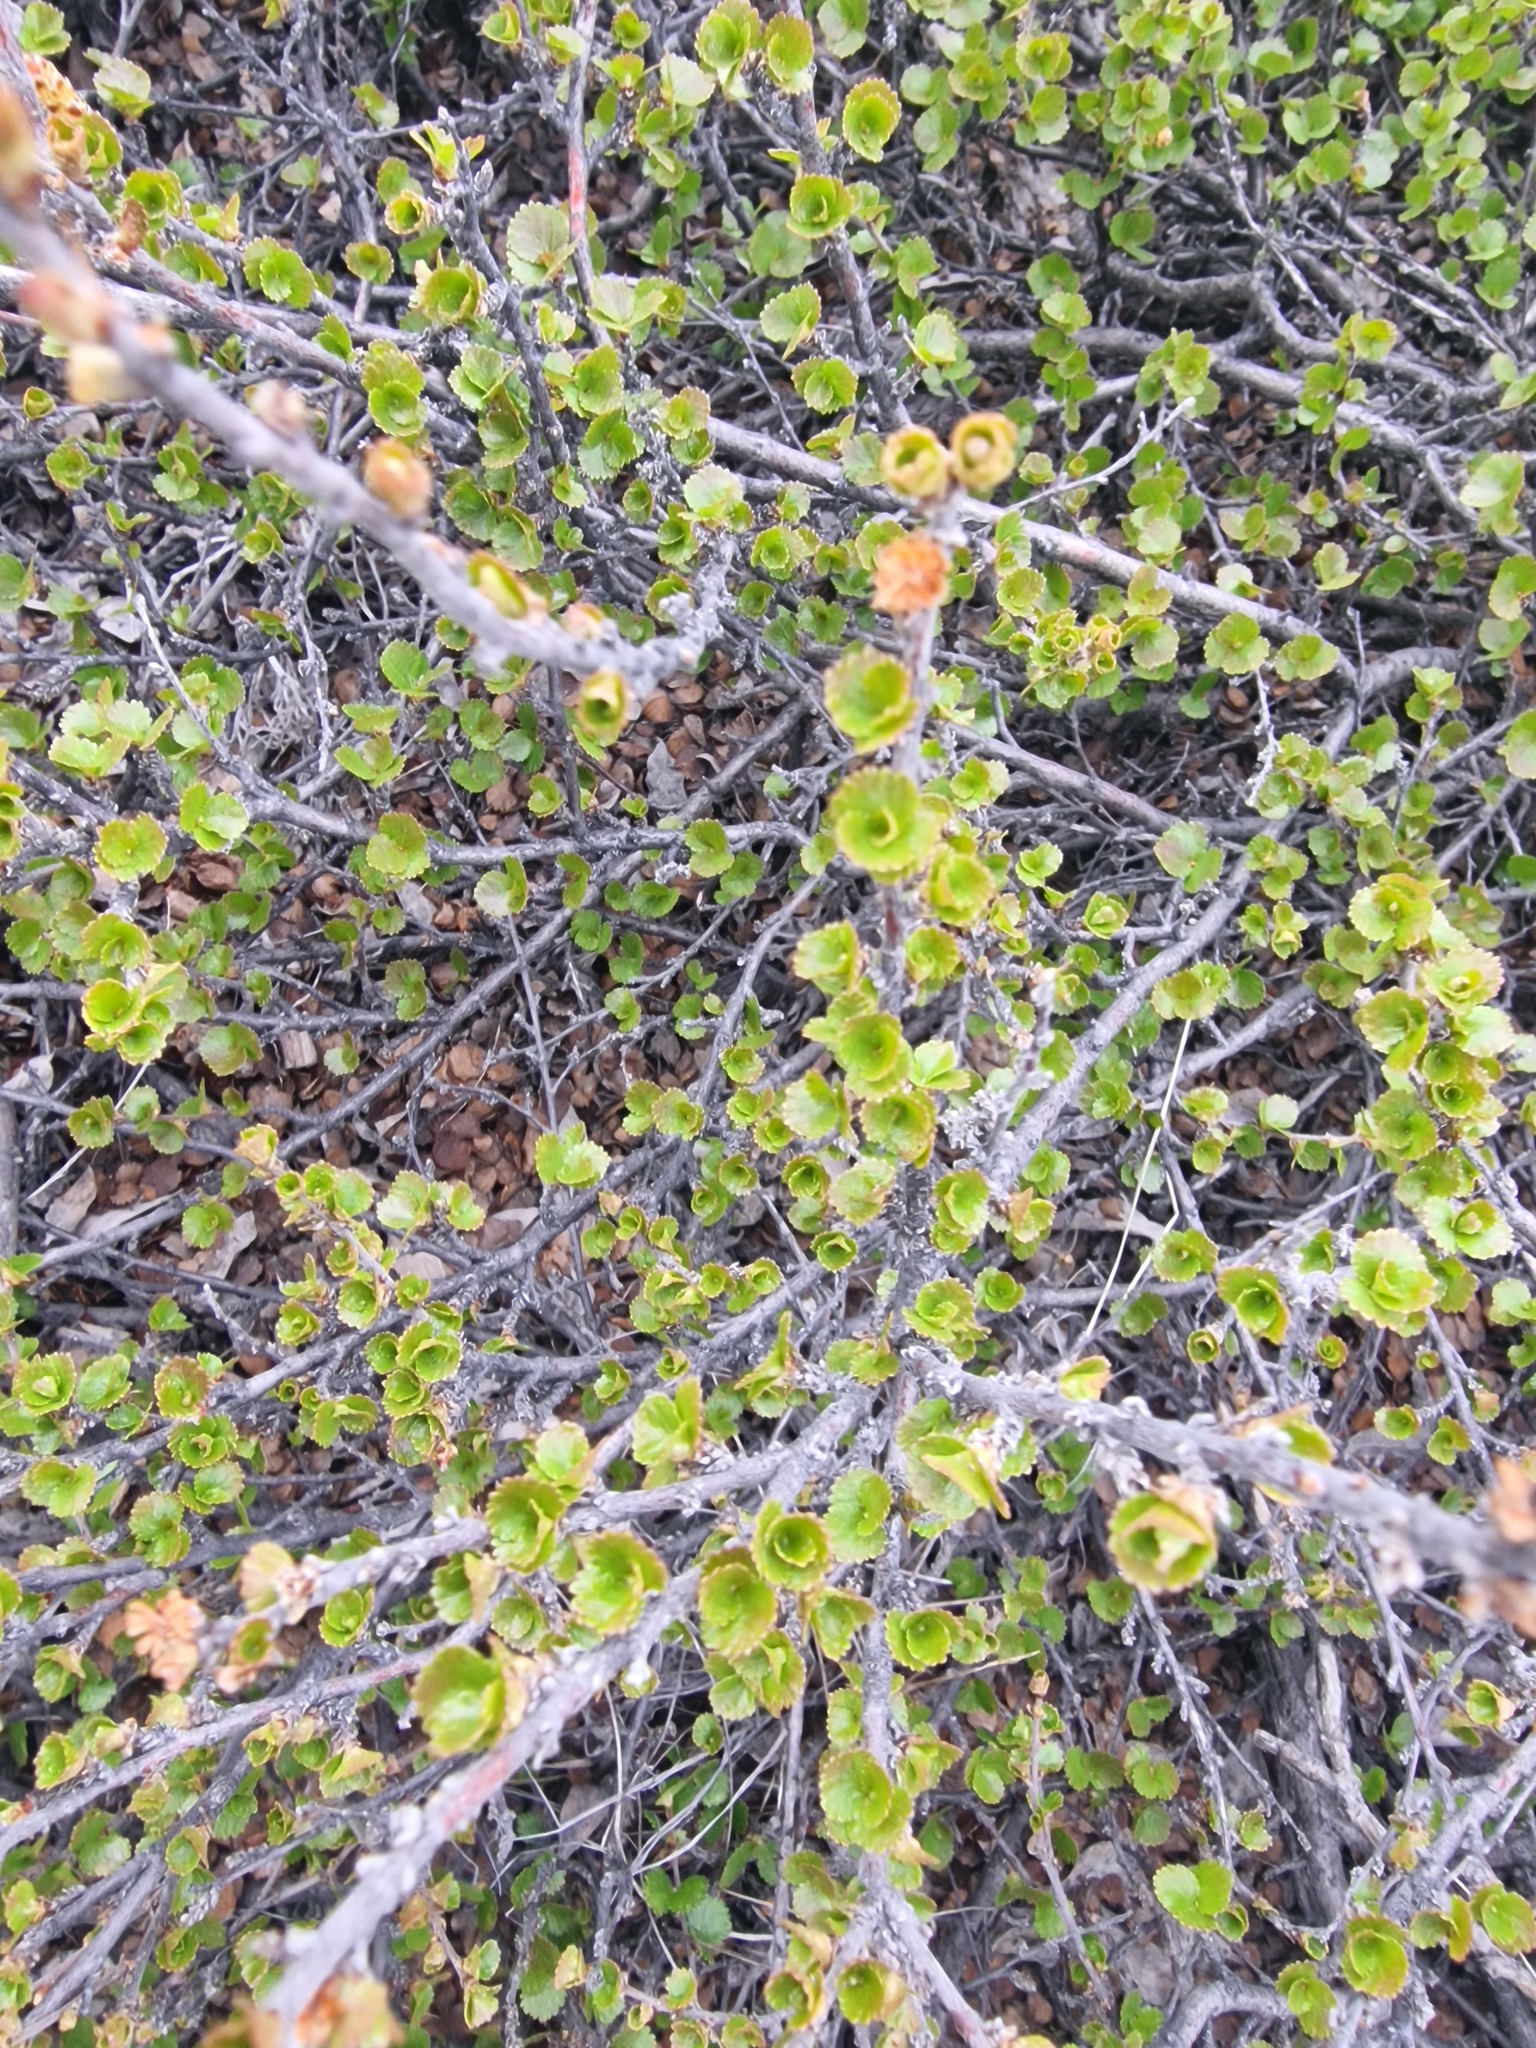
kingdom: Plantae
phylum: Tracheophyta
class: Magnoliopsida
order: Fagales
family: Betulaceae
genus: Betula
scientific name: Betula nana
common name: Arctic dwarf birch
